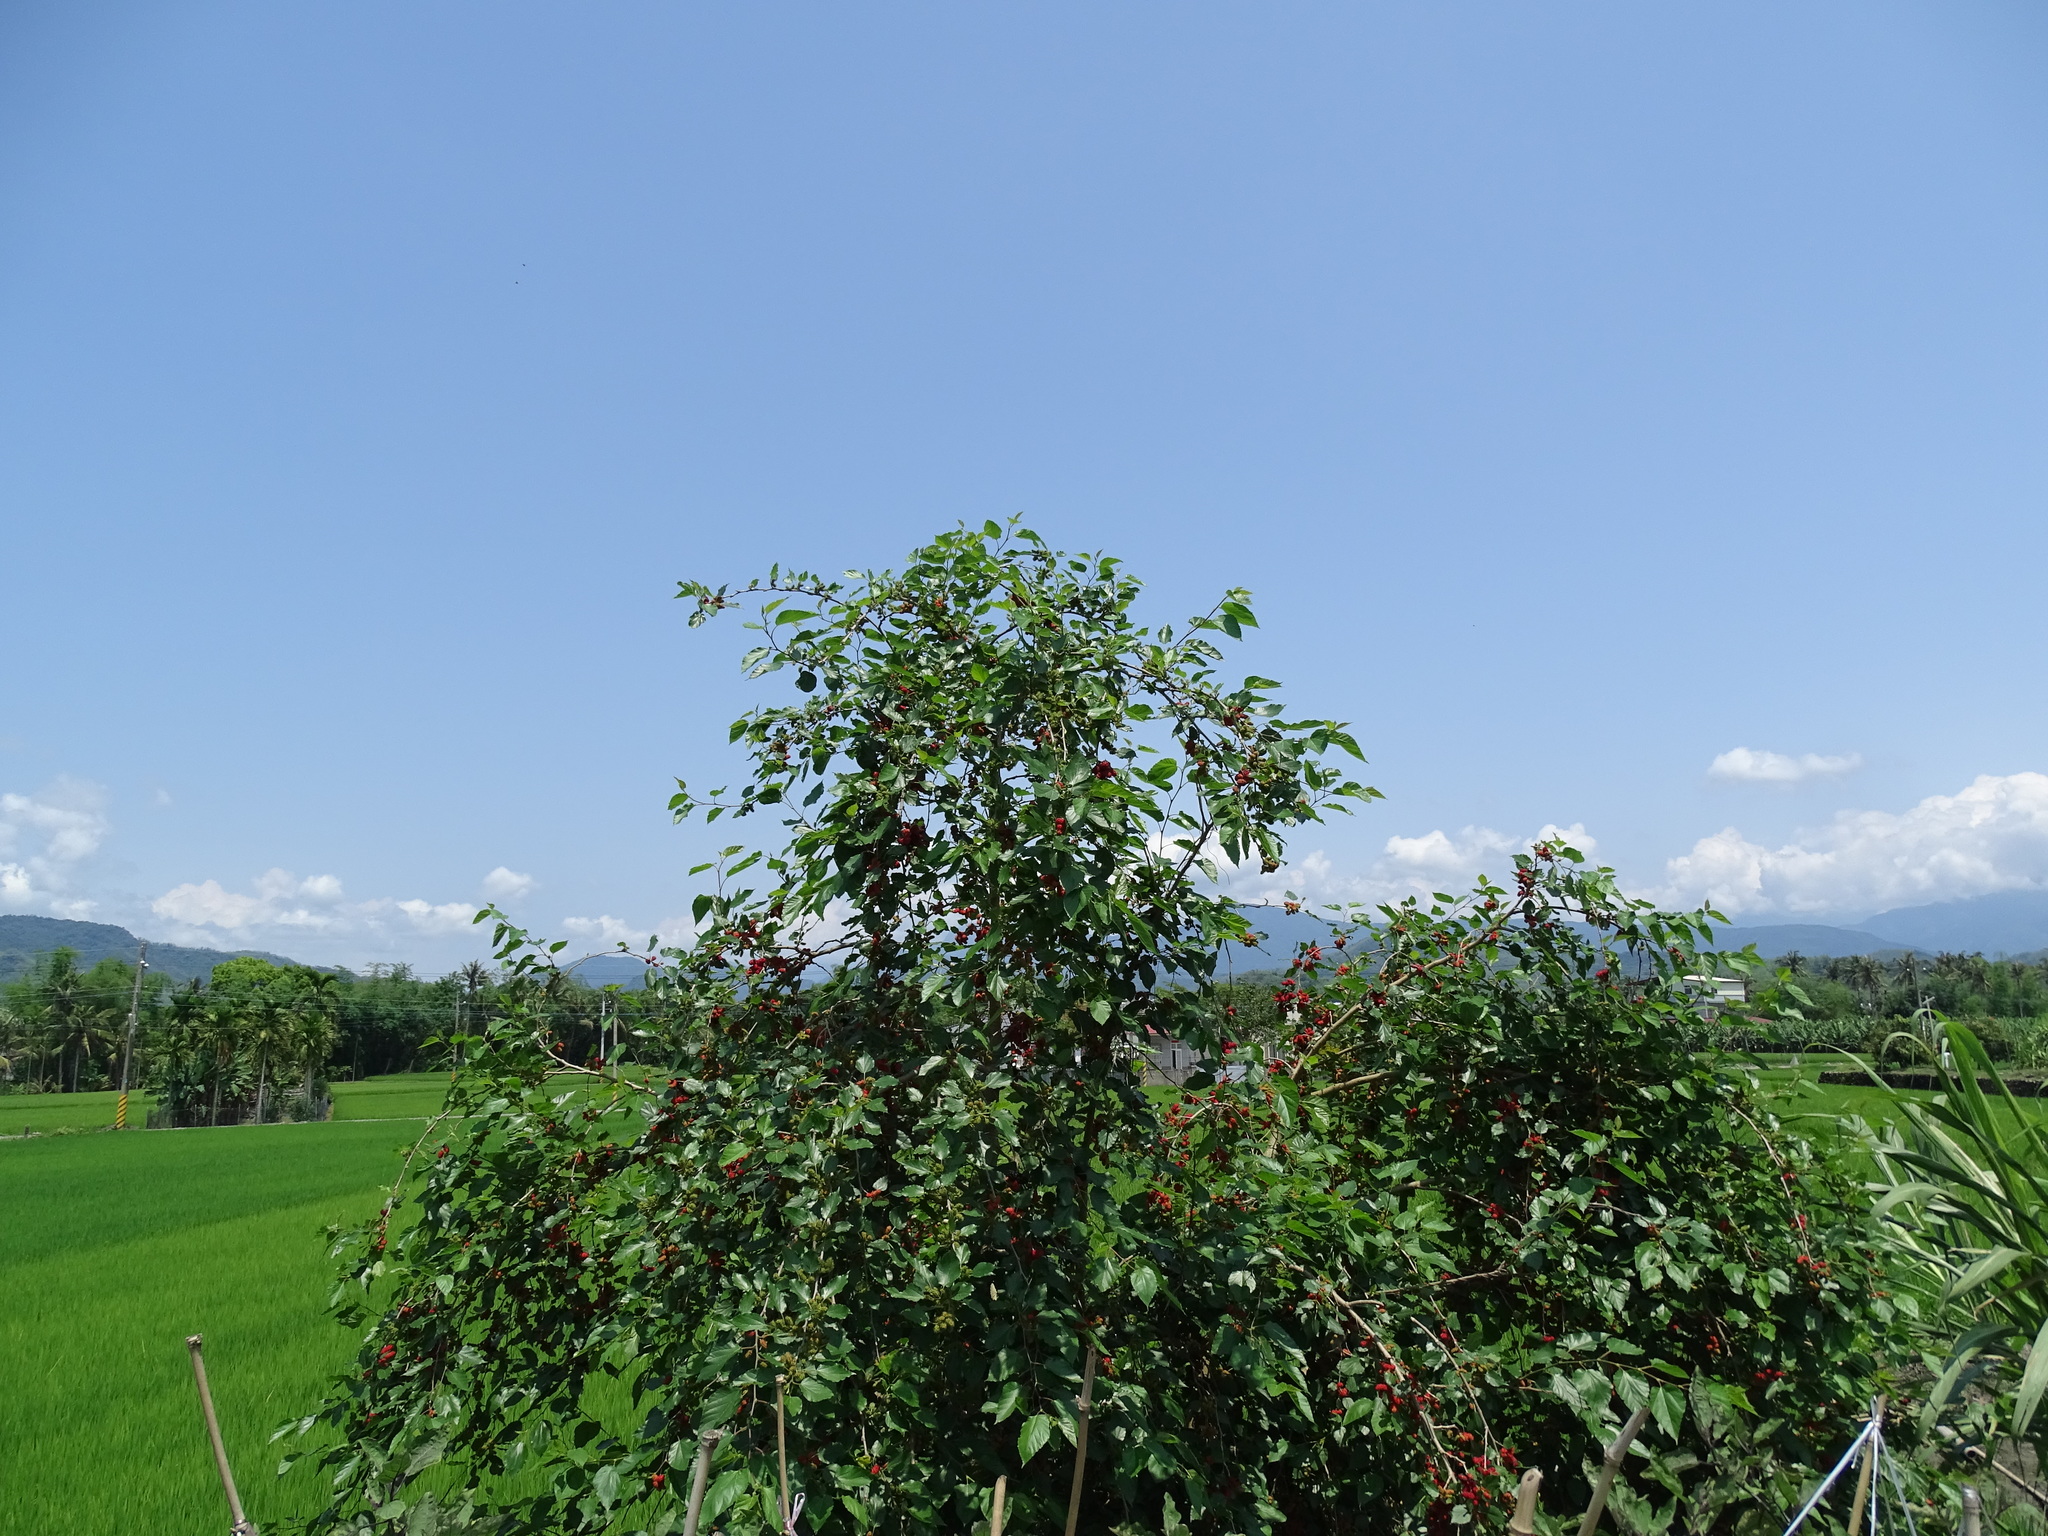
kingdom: Plantae
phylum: Tracheophyta
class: Magnoliopsida
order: Rosales
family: Moraceae
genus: Morus
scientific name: Morus alba
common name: White mulberry
